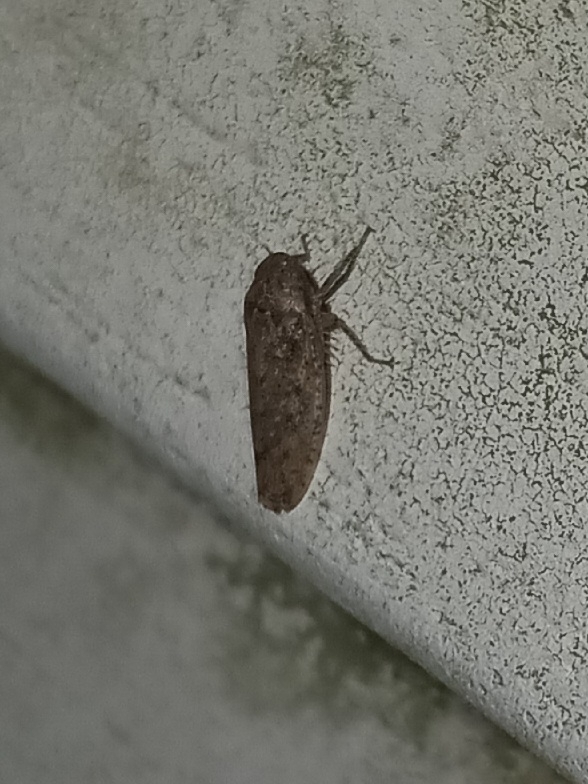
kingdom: Animalia
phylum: Arthropoda
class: Insecta
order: Hemiptera
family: Cicadellidae
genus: Curtara
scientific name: Curtara insularis
